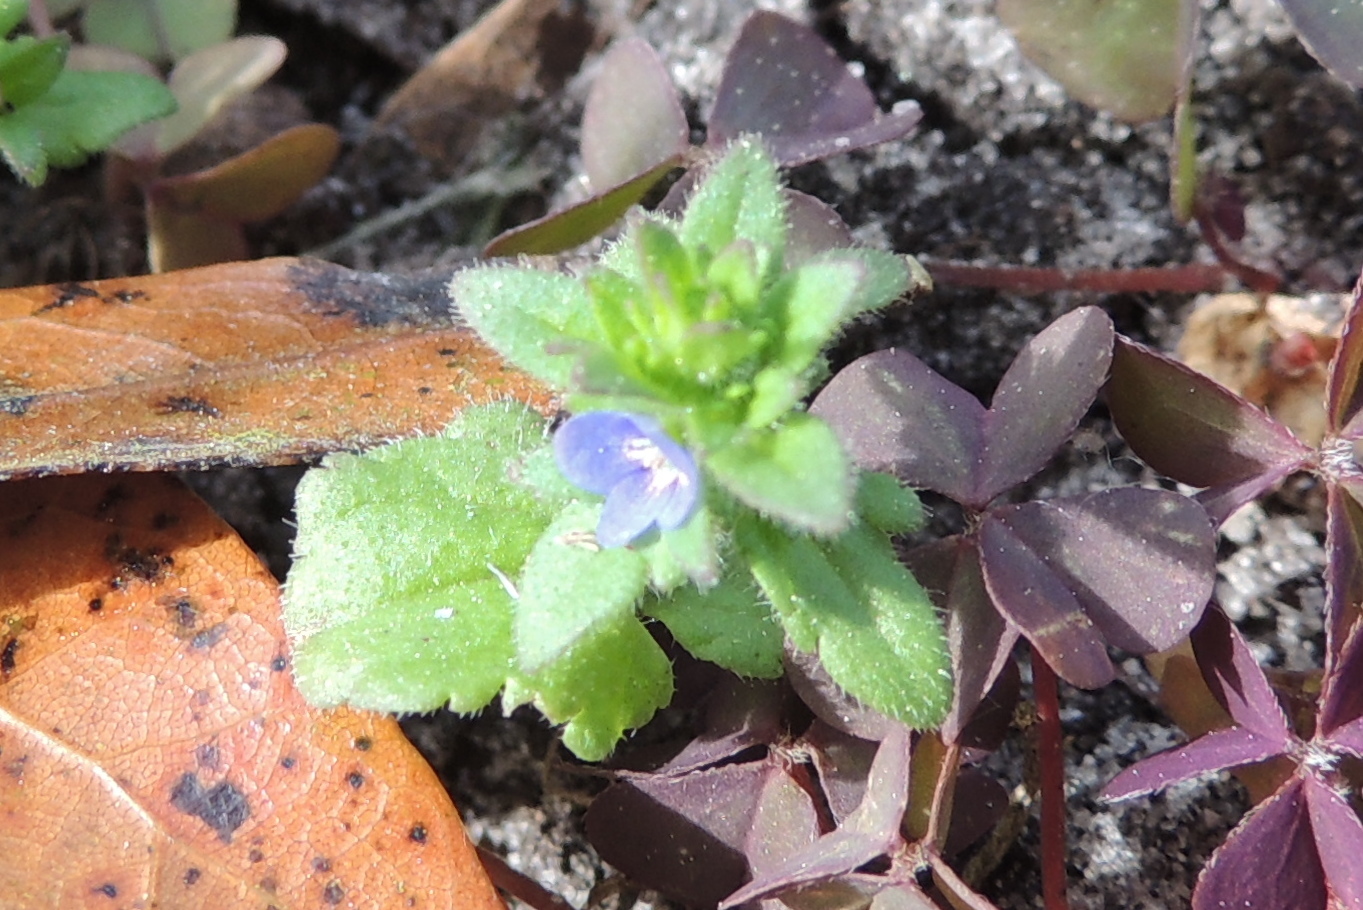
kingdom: Plantae
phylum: Tracheophyta
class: Magnoliopsida
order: Lamiales
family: Plantaginaceae
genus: Veronica
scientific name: Veronica arvensis
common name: Corn speedwell
